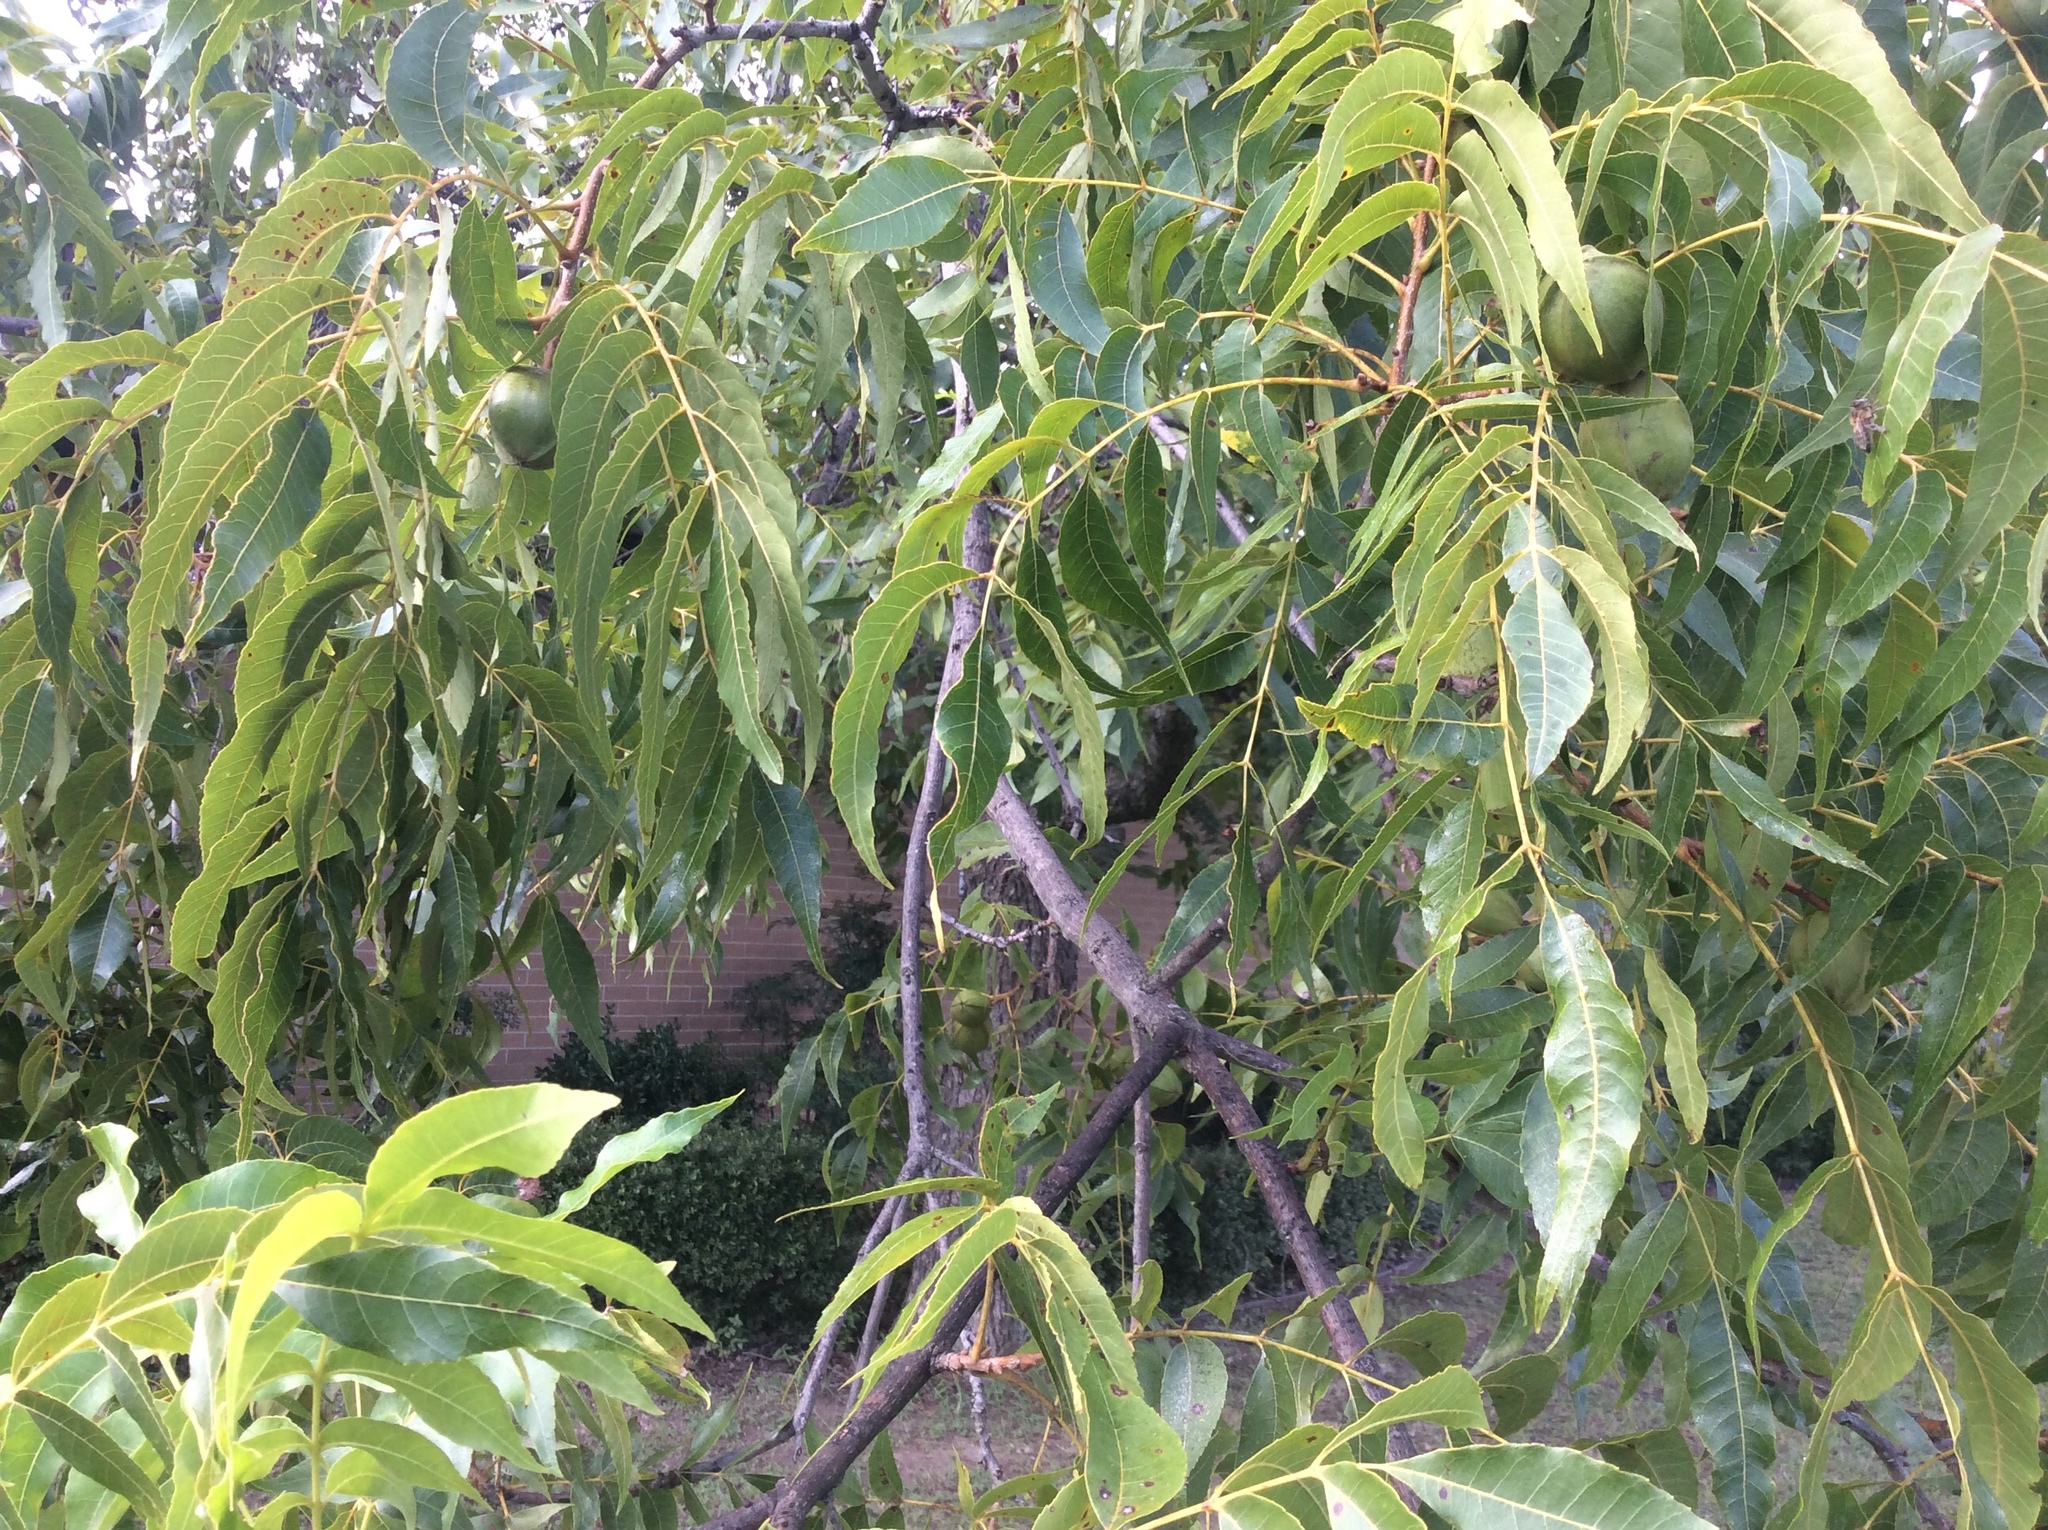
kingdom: Plantae
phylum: Tracheophyta
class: Magnoliopsida
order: Fagales
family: Juglandaceae
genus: Carya
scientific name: Carya illinoinensis
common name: Pecan
